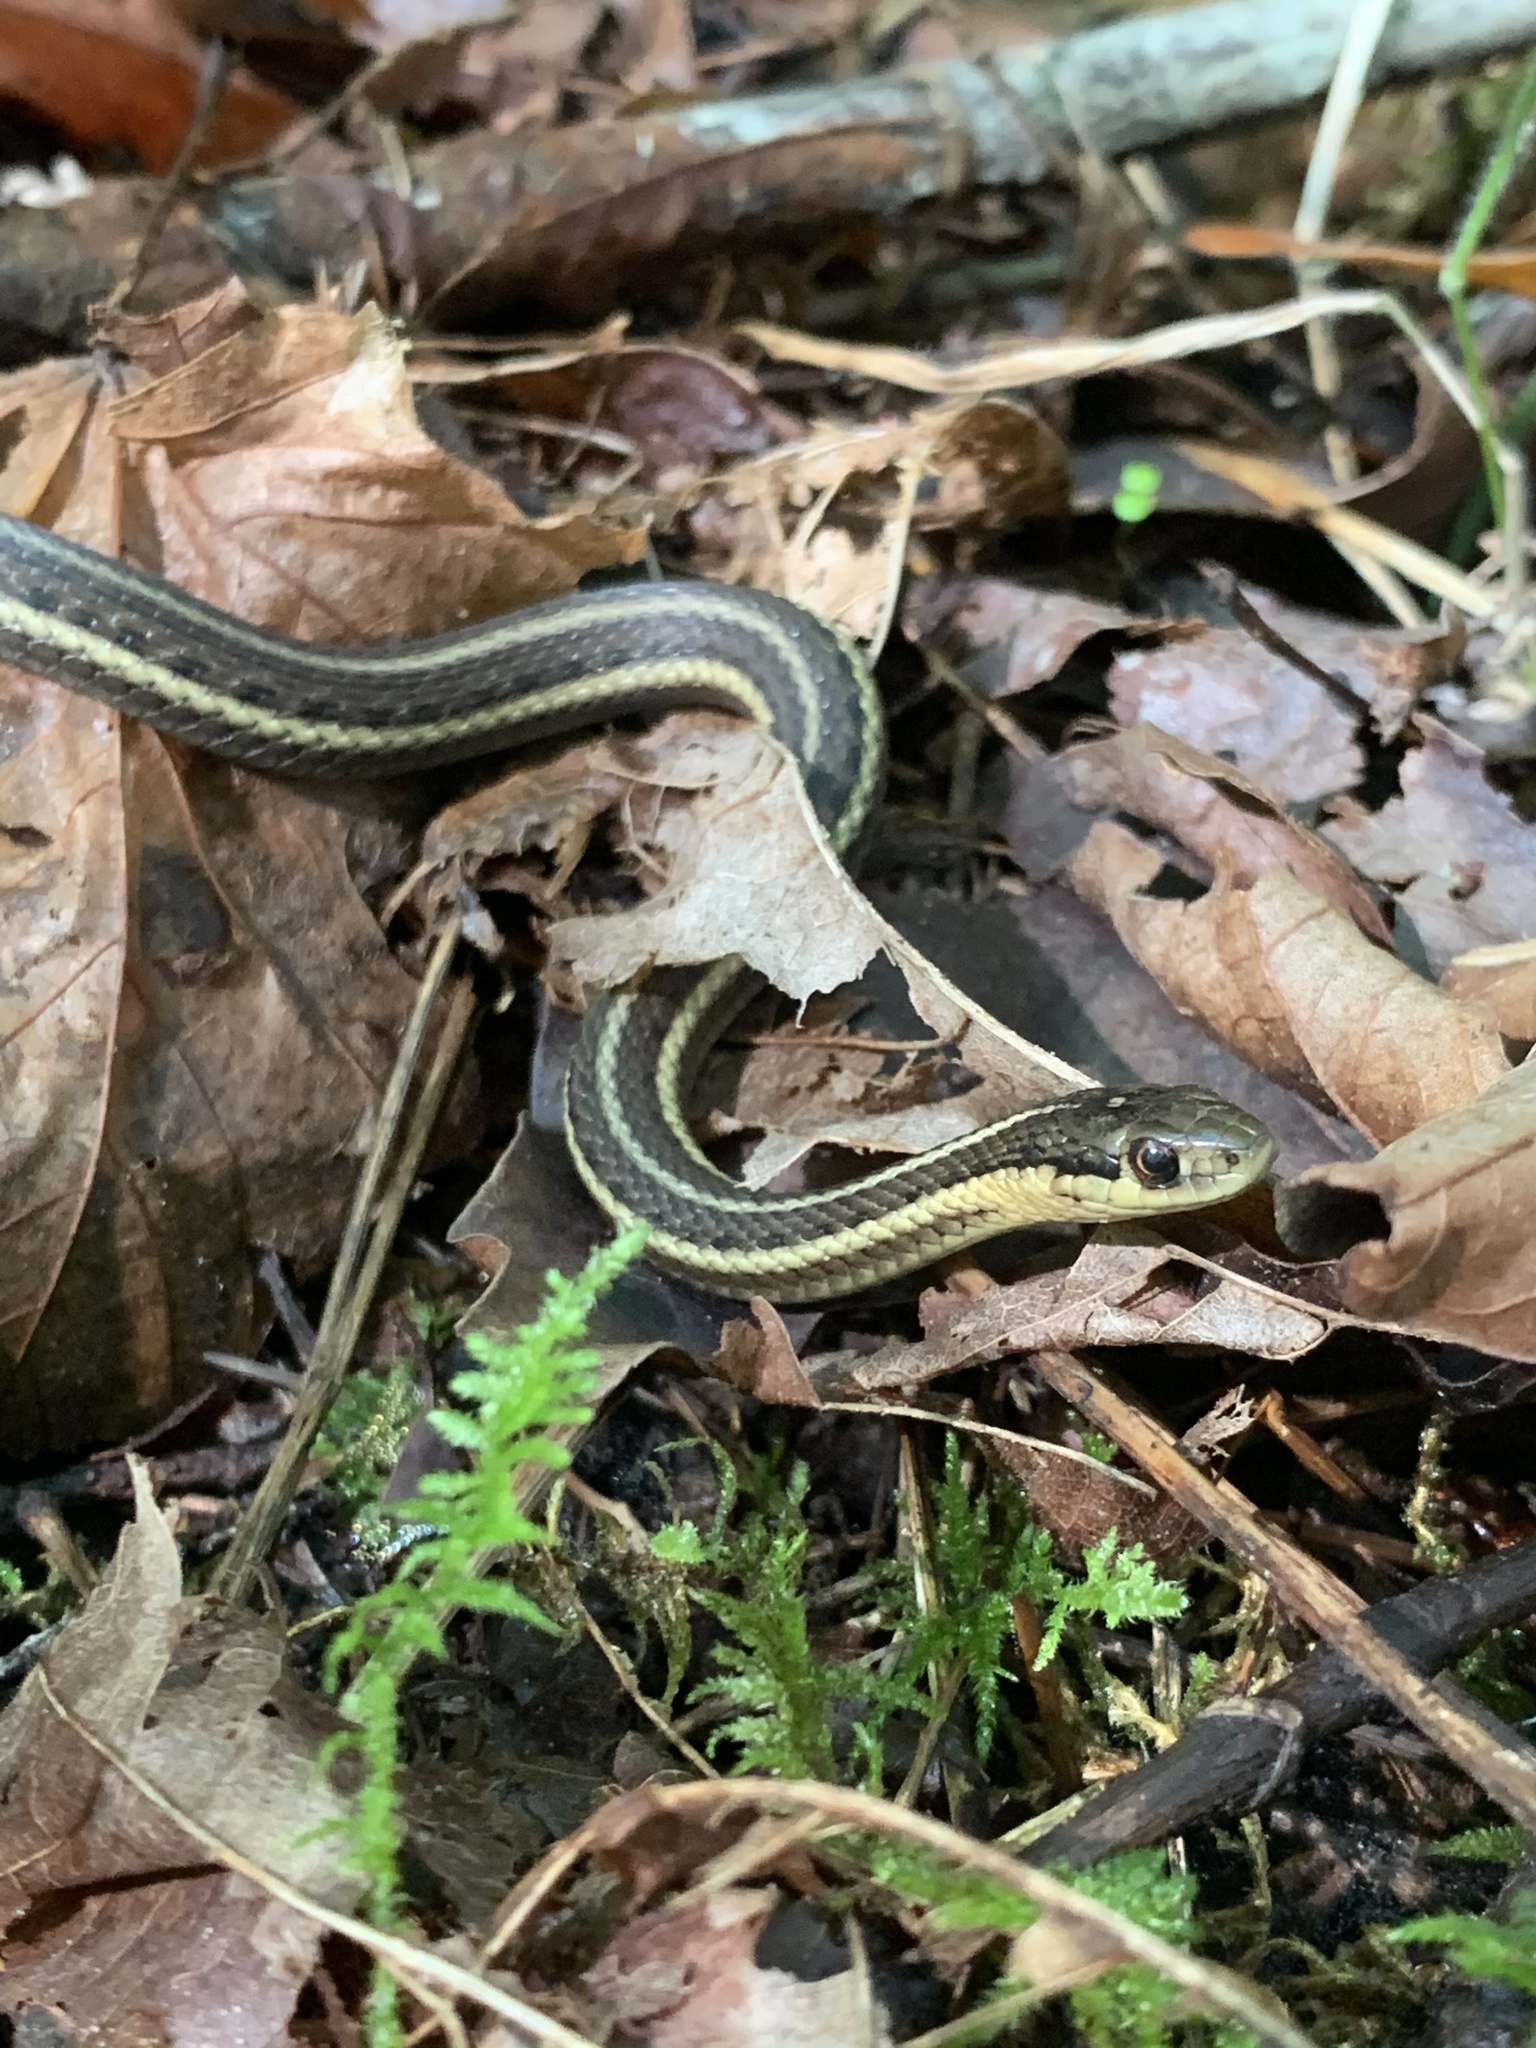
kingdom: Animalia
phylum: Chordata
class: Squamata
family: Colubridae
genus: Thamnophis
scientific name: Thamnophis ordinoides
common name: Northwestern garter snake
